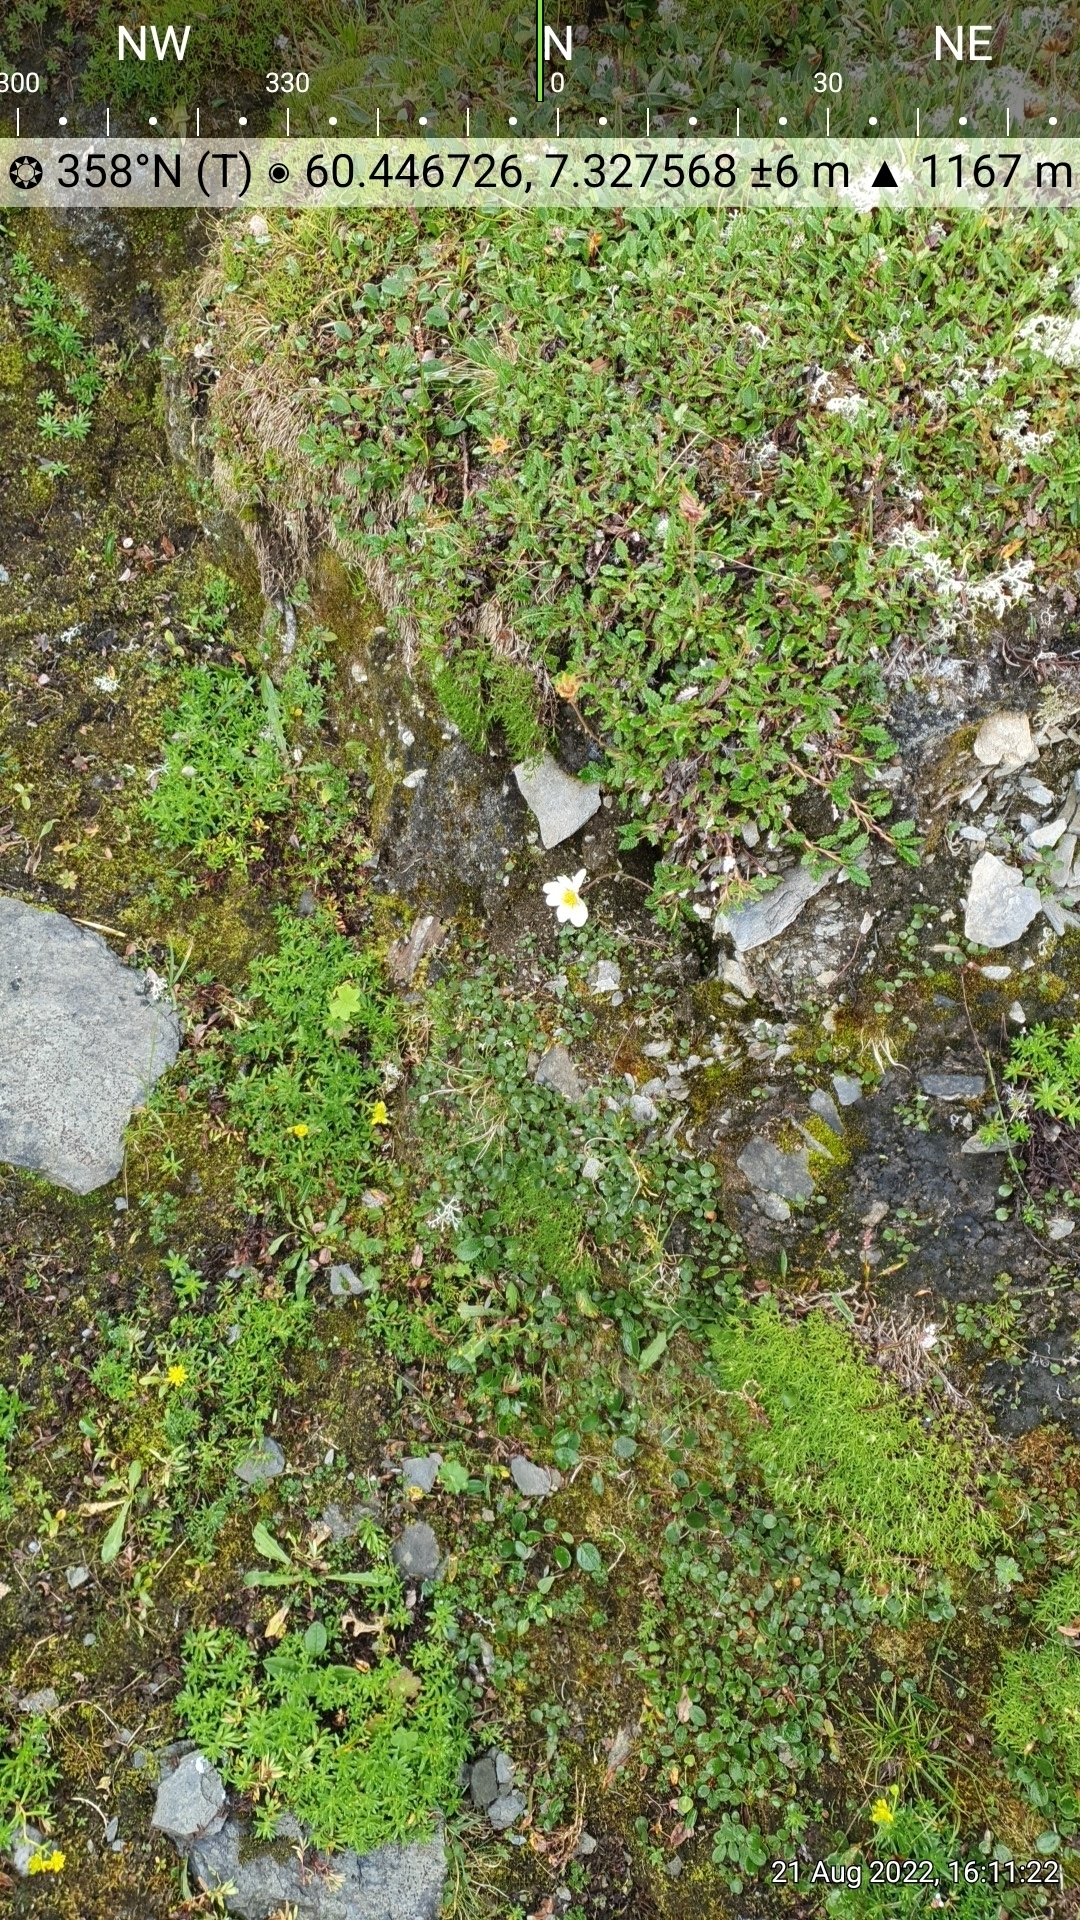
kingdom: Plantae
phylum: Tracheophyta
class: Magnoliopsida
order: Rosales
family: Rosaceae
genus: Dryas
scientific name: Dryas octopetala
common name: Eight-petal mountain-avens
